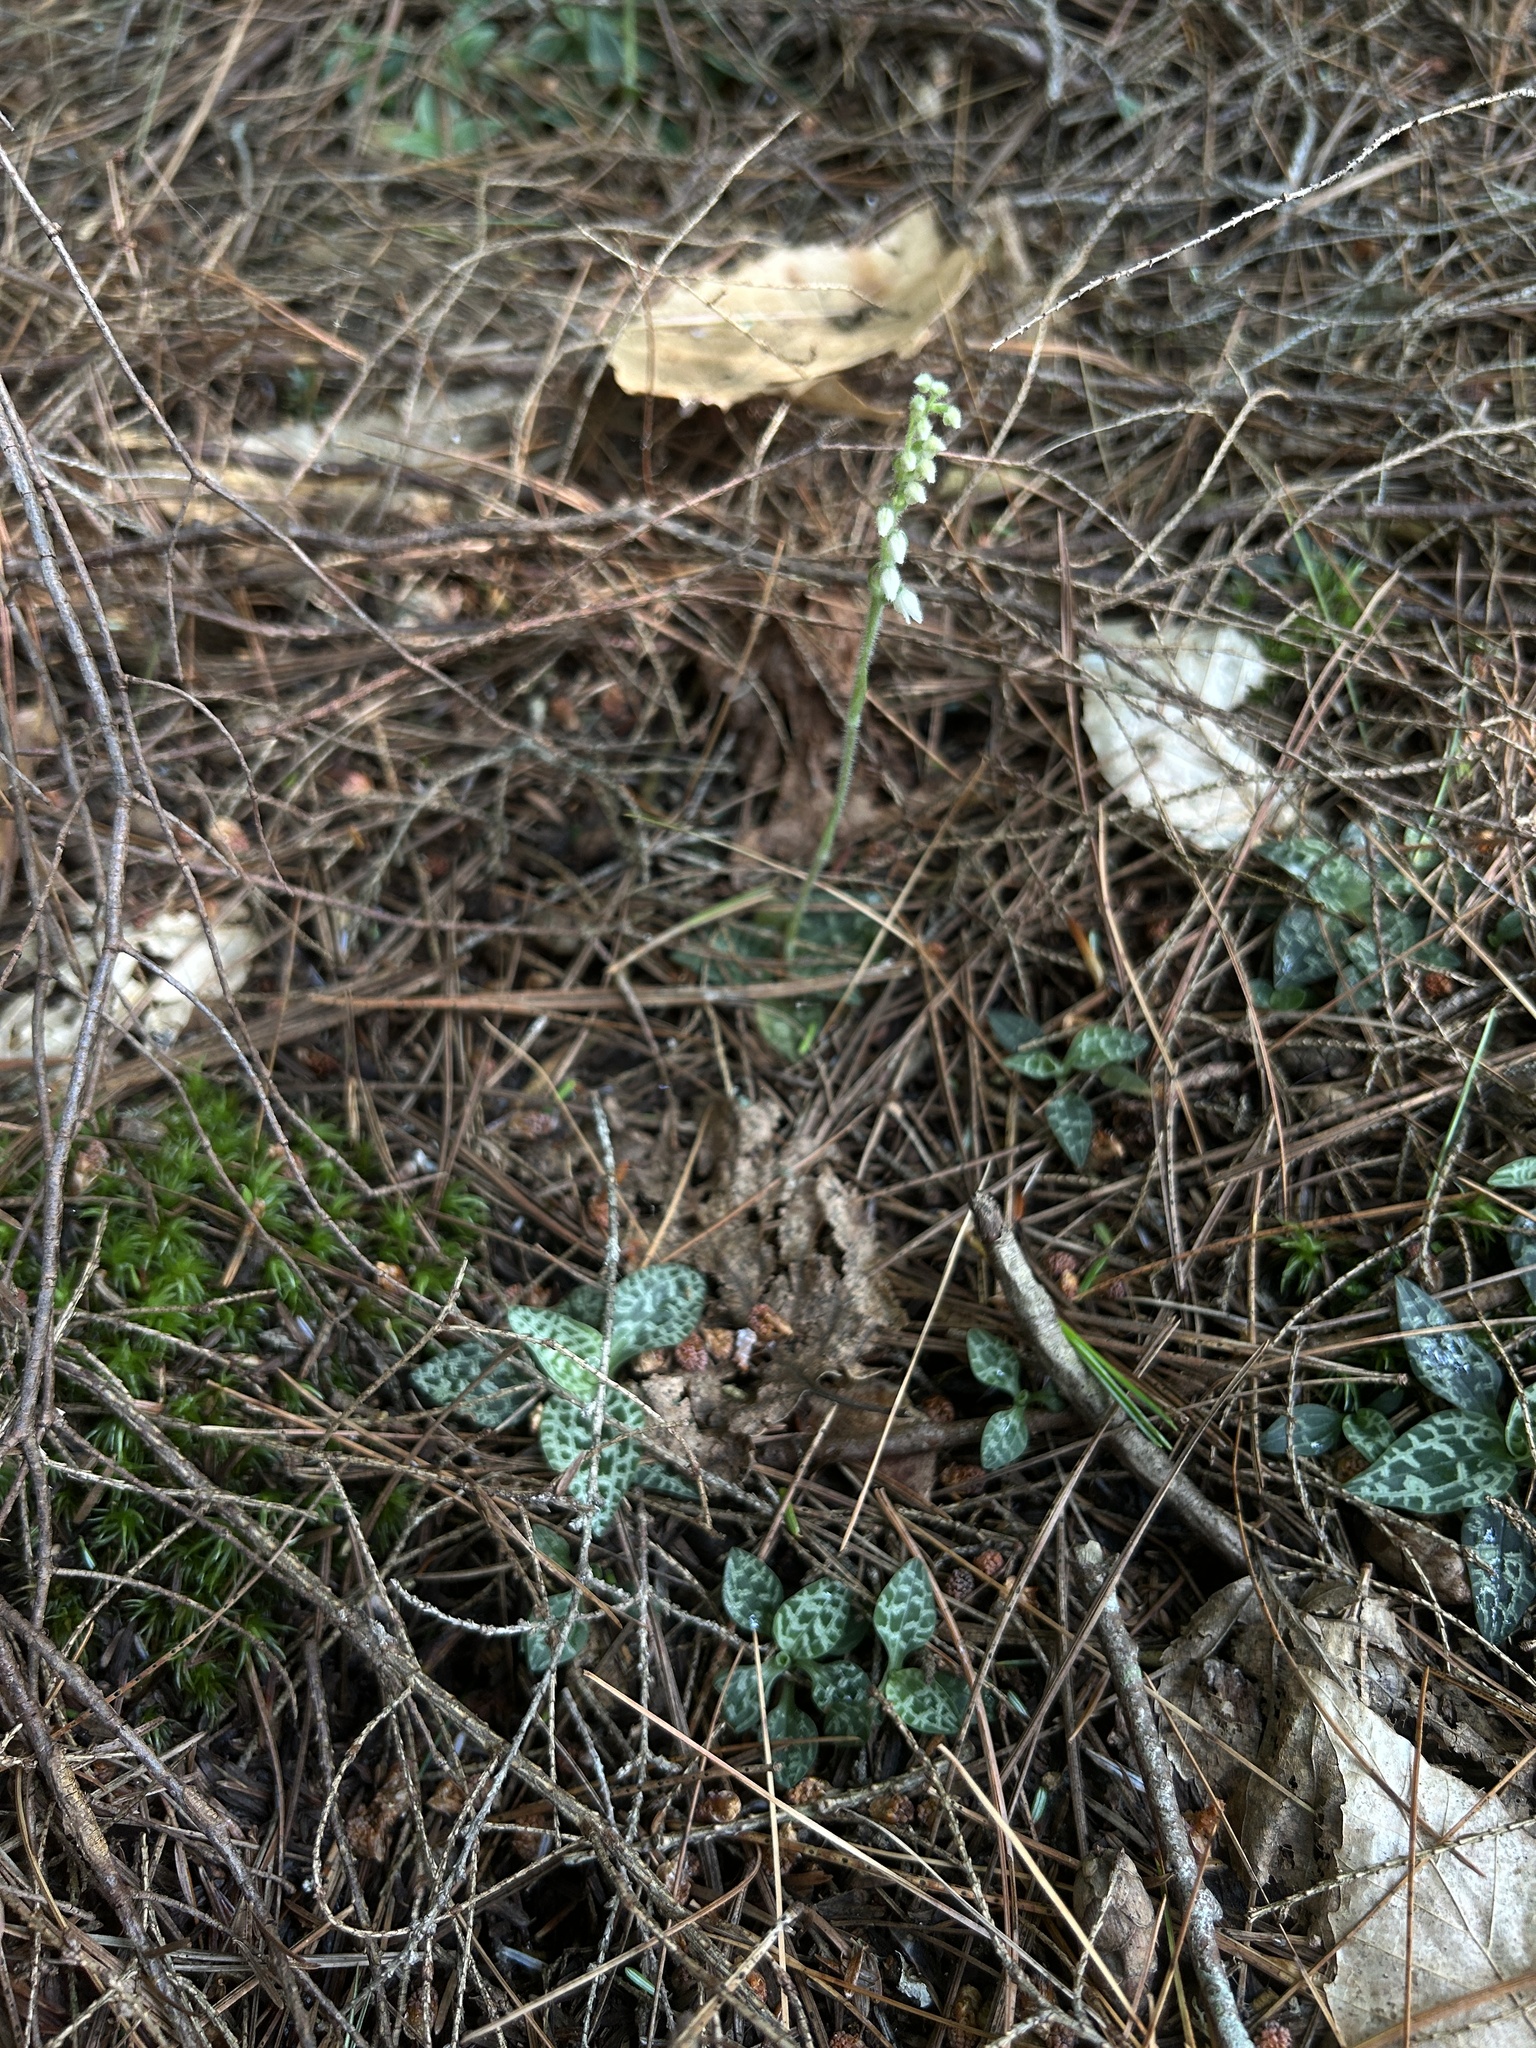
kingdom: Plantae
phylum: Tracheophyta
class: Liliopsida
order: Asparagales
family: Orchidaceae
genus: Goodyera
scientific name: Goodyera repens
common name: Creeping lady's-tresses
